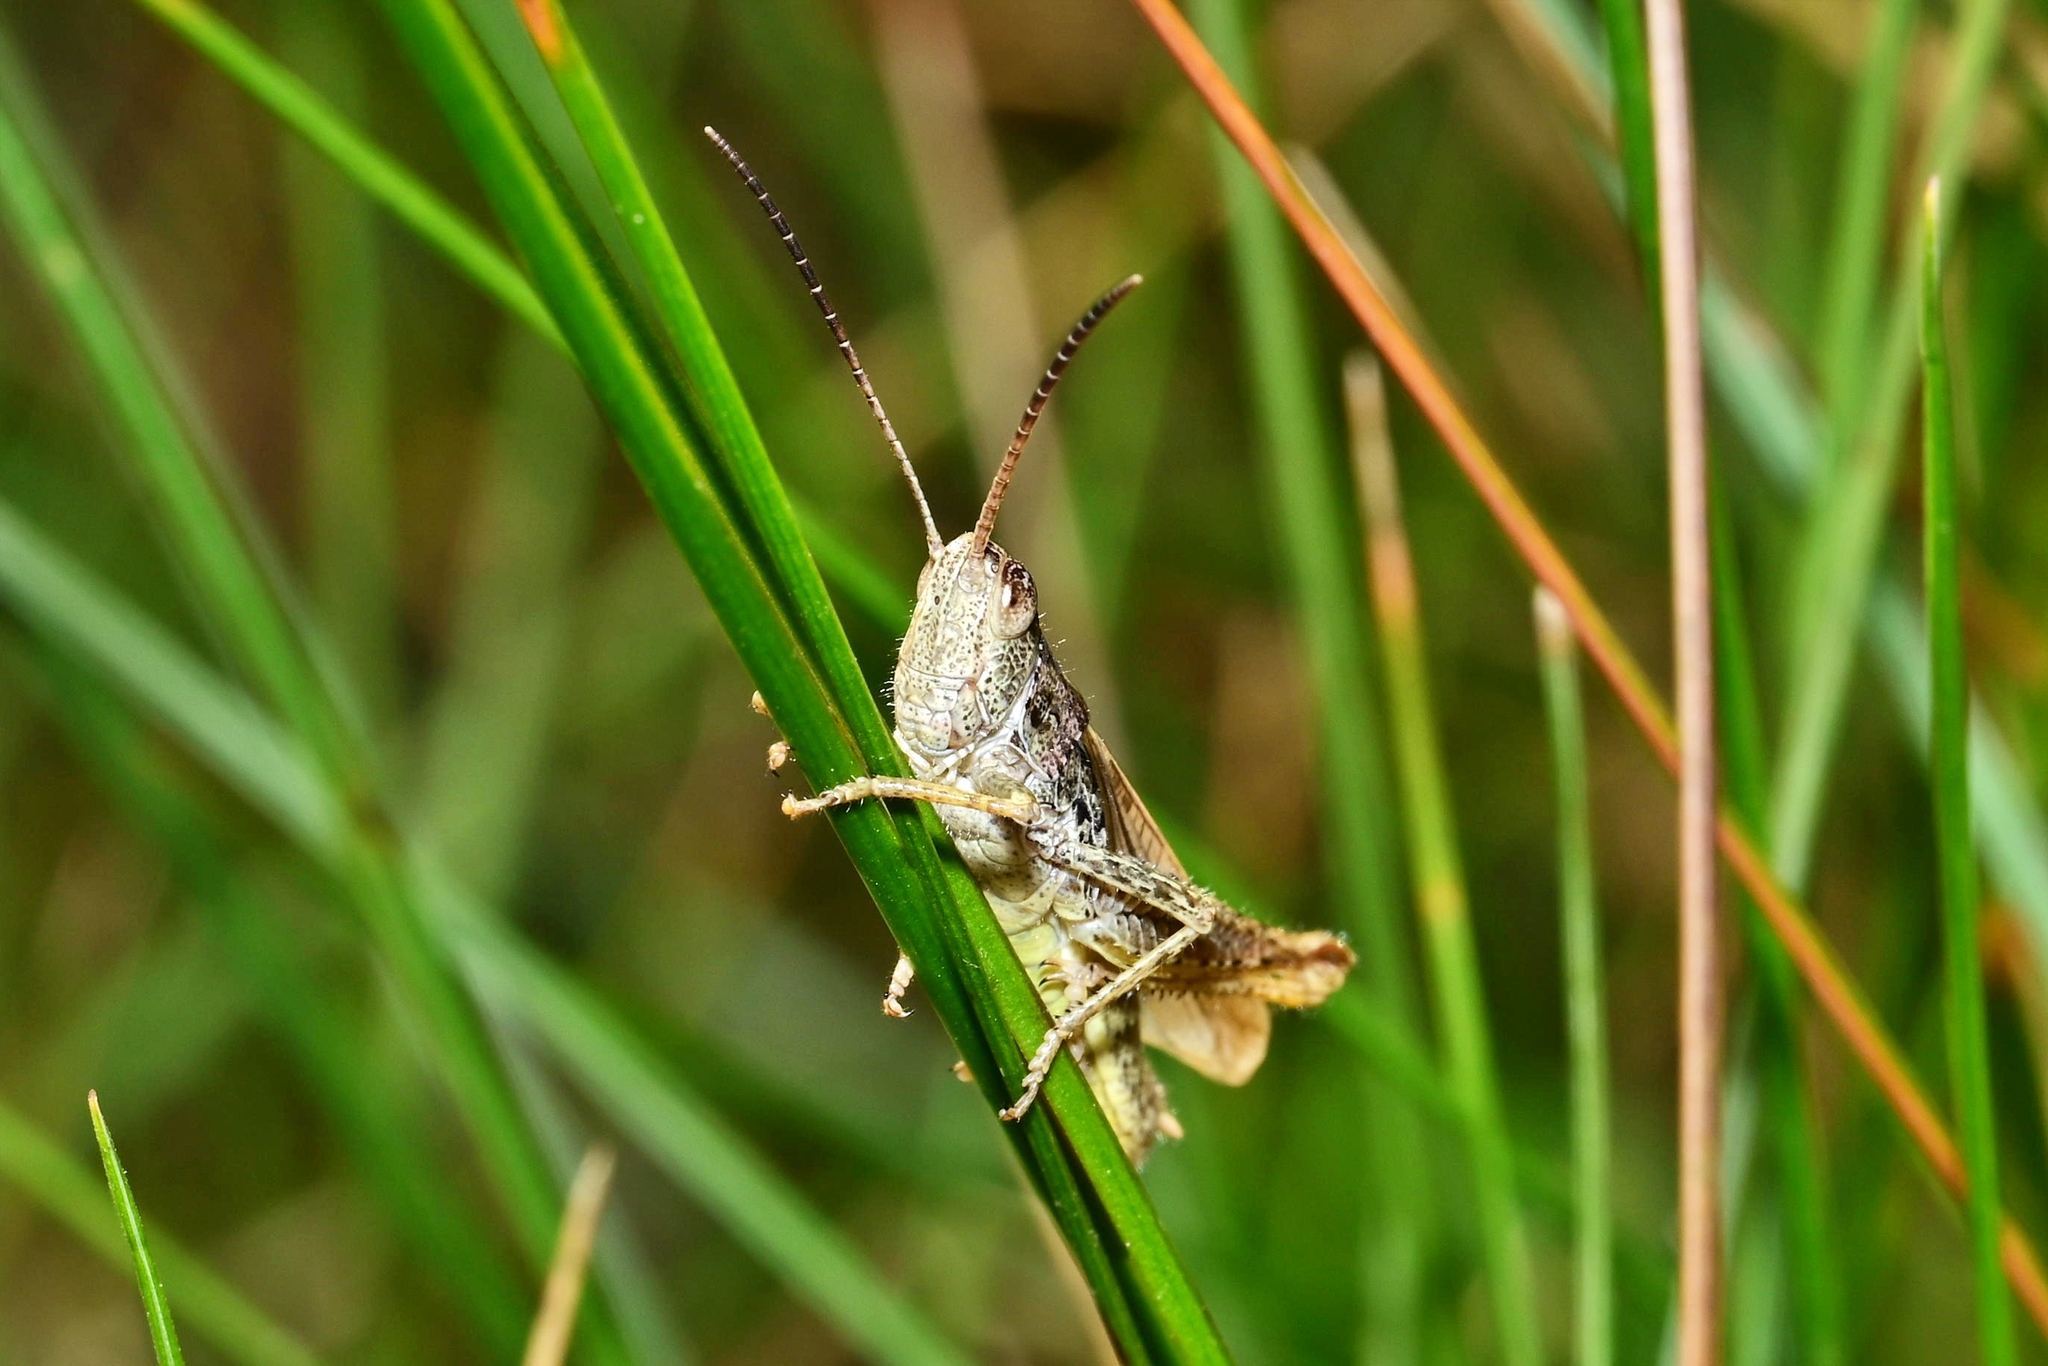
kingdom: Animalia
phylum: Arthropoda
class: Insecta
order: Orthoptera
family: Acrididae
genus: Chorthippus
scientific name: Chorthippus apricarius
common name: Upland field grasshopper
